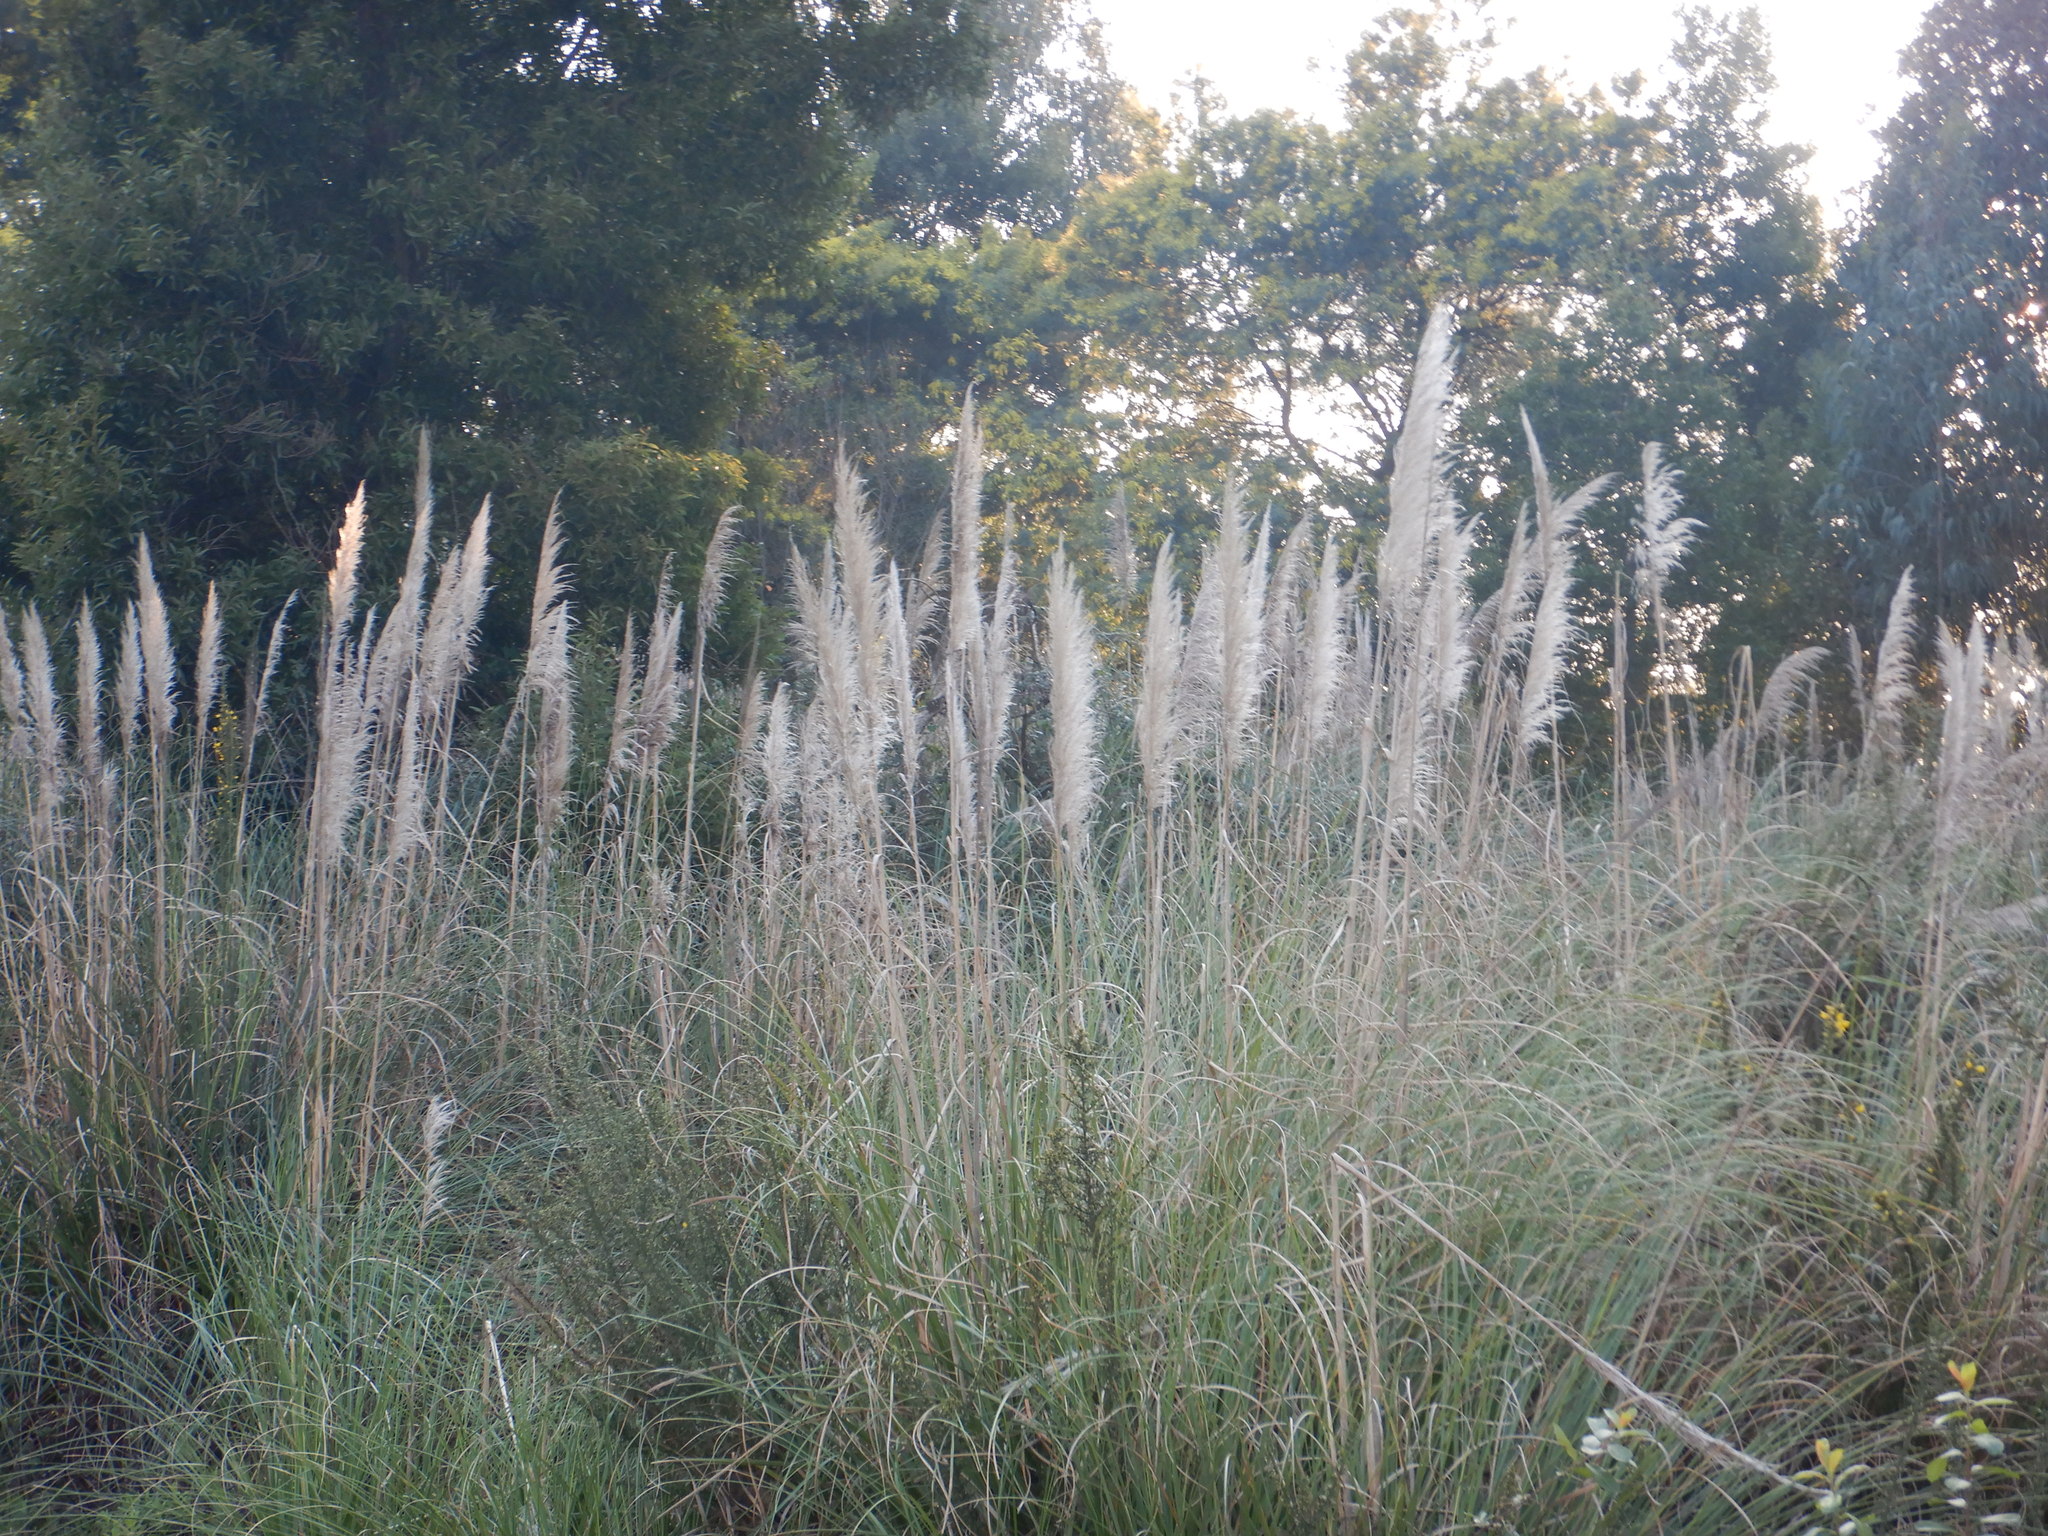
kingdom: Plantae
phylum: Tracheophyta
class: Liliopsida
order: Poales
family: Poaceae
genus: Cortaderia
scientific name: Cortaderia selloana
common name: Uruguayan pampas grass
